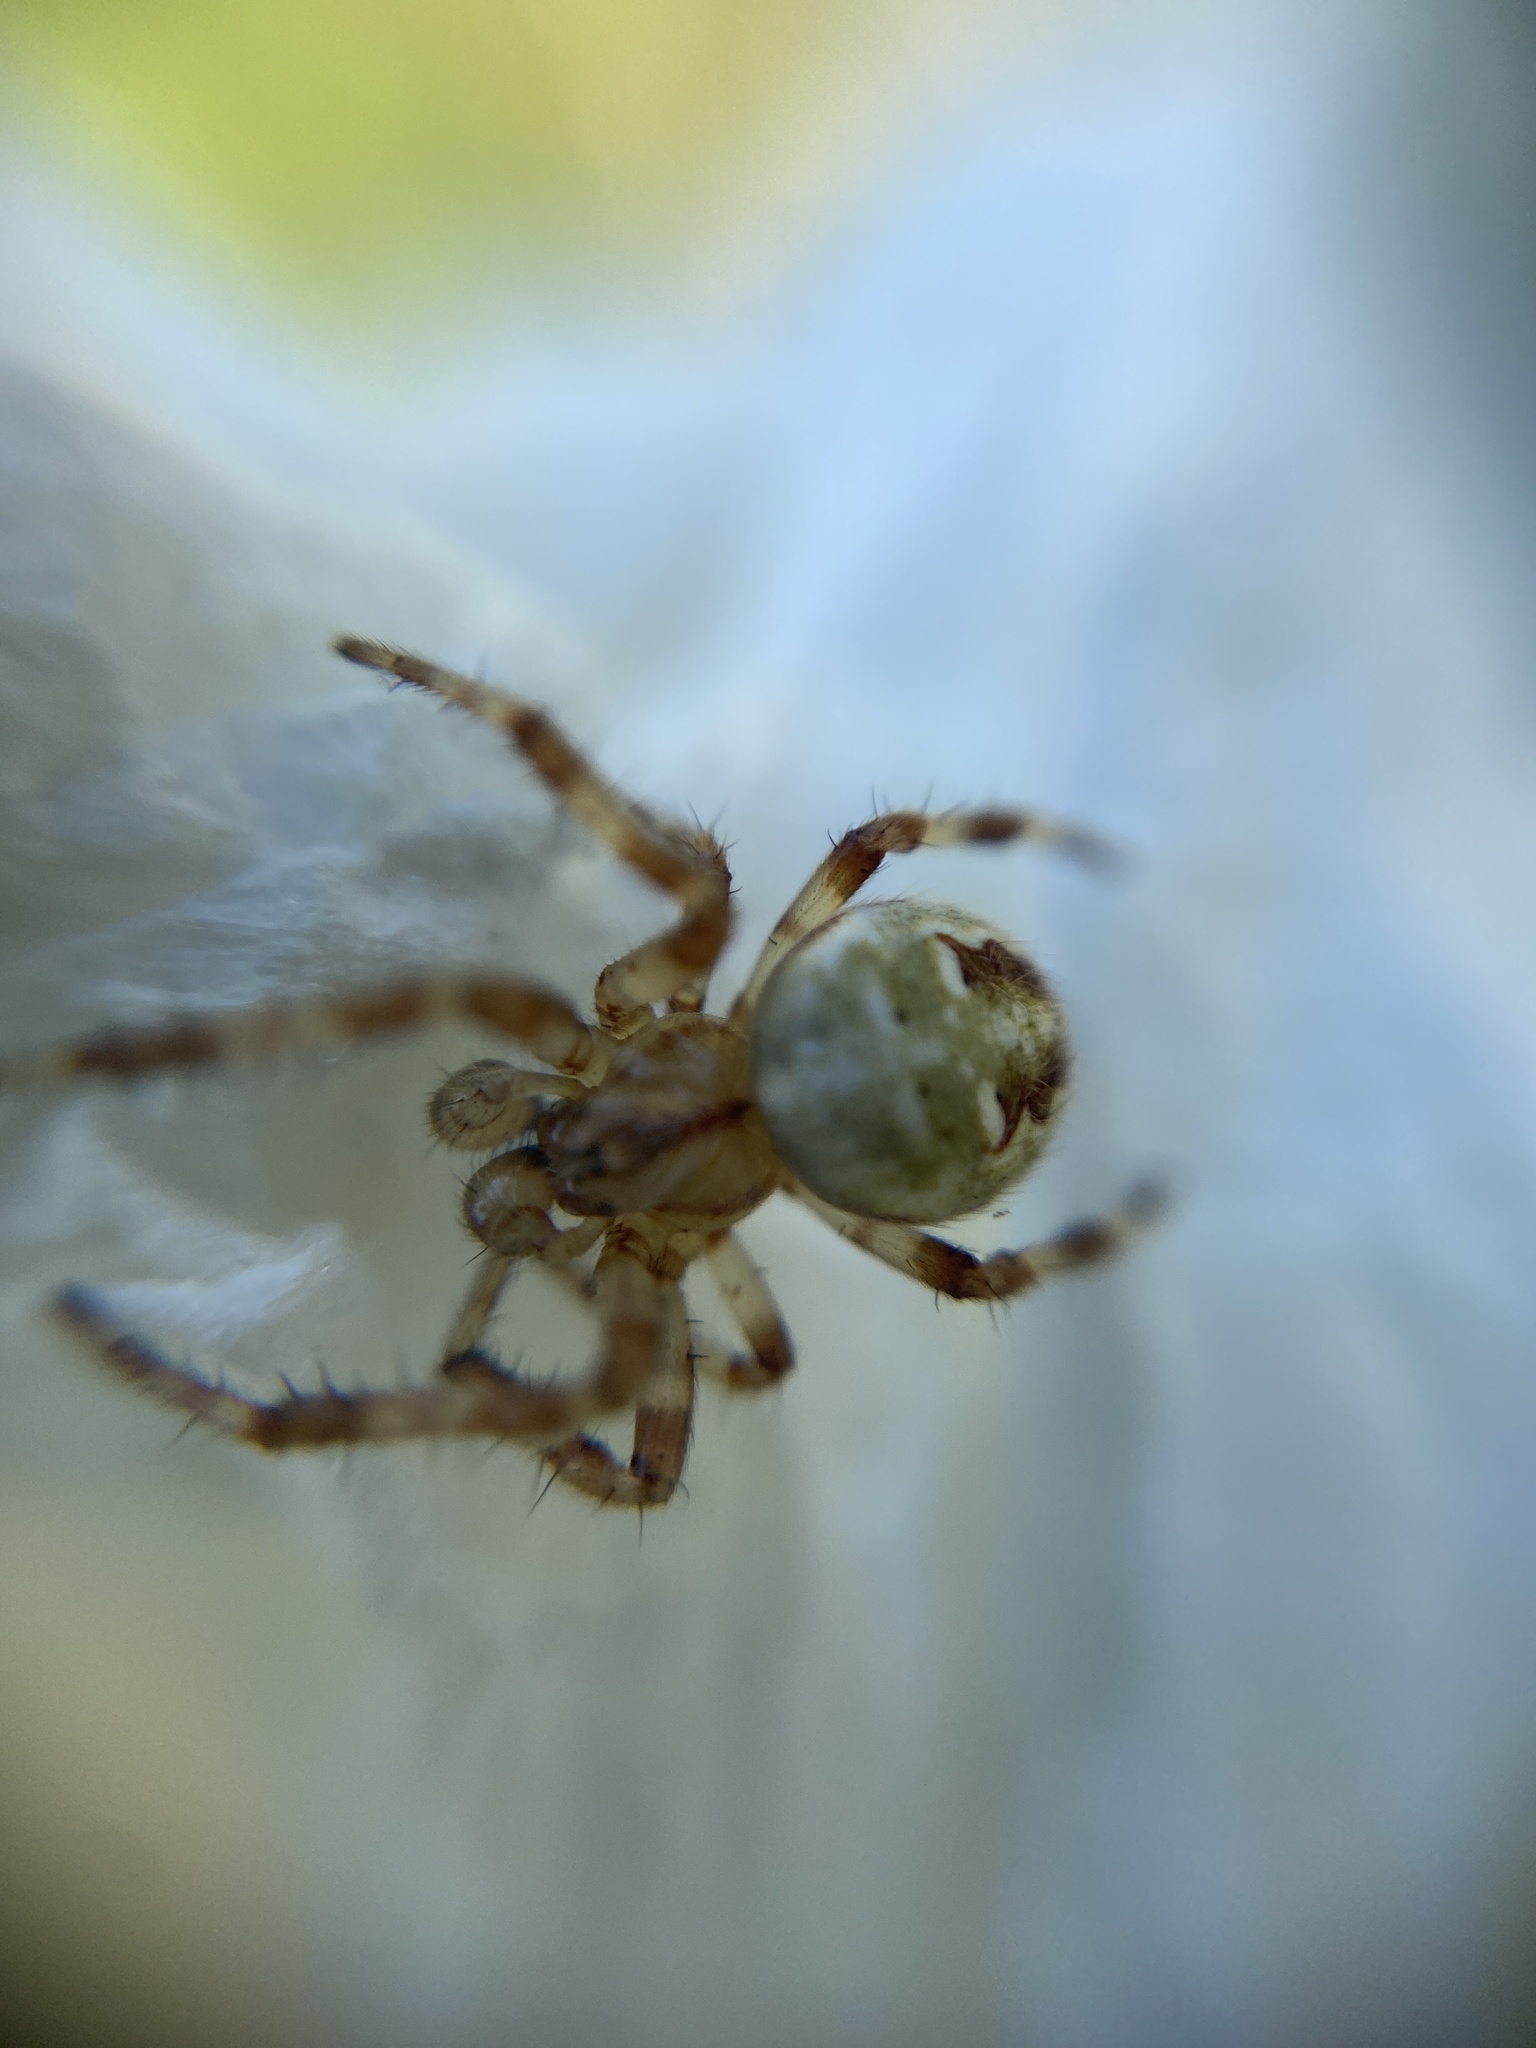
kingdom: Animalia
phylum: Arthropoda
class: Arachnida
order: Araneae
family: Araneidae
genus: Araneus
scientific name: Araneus quadratus
